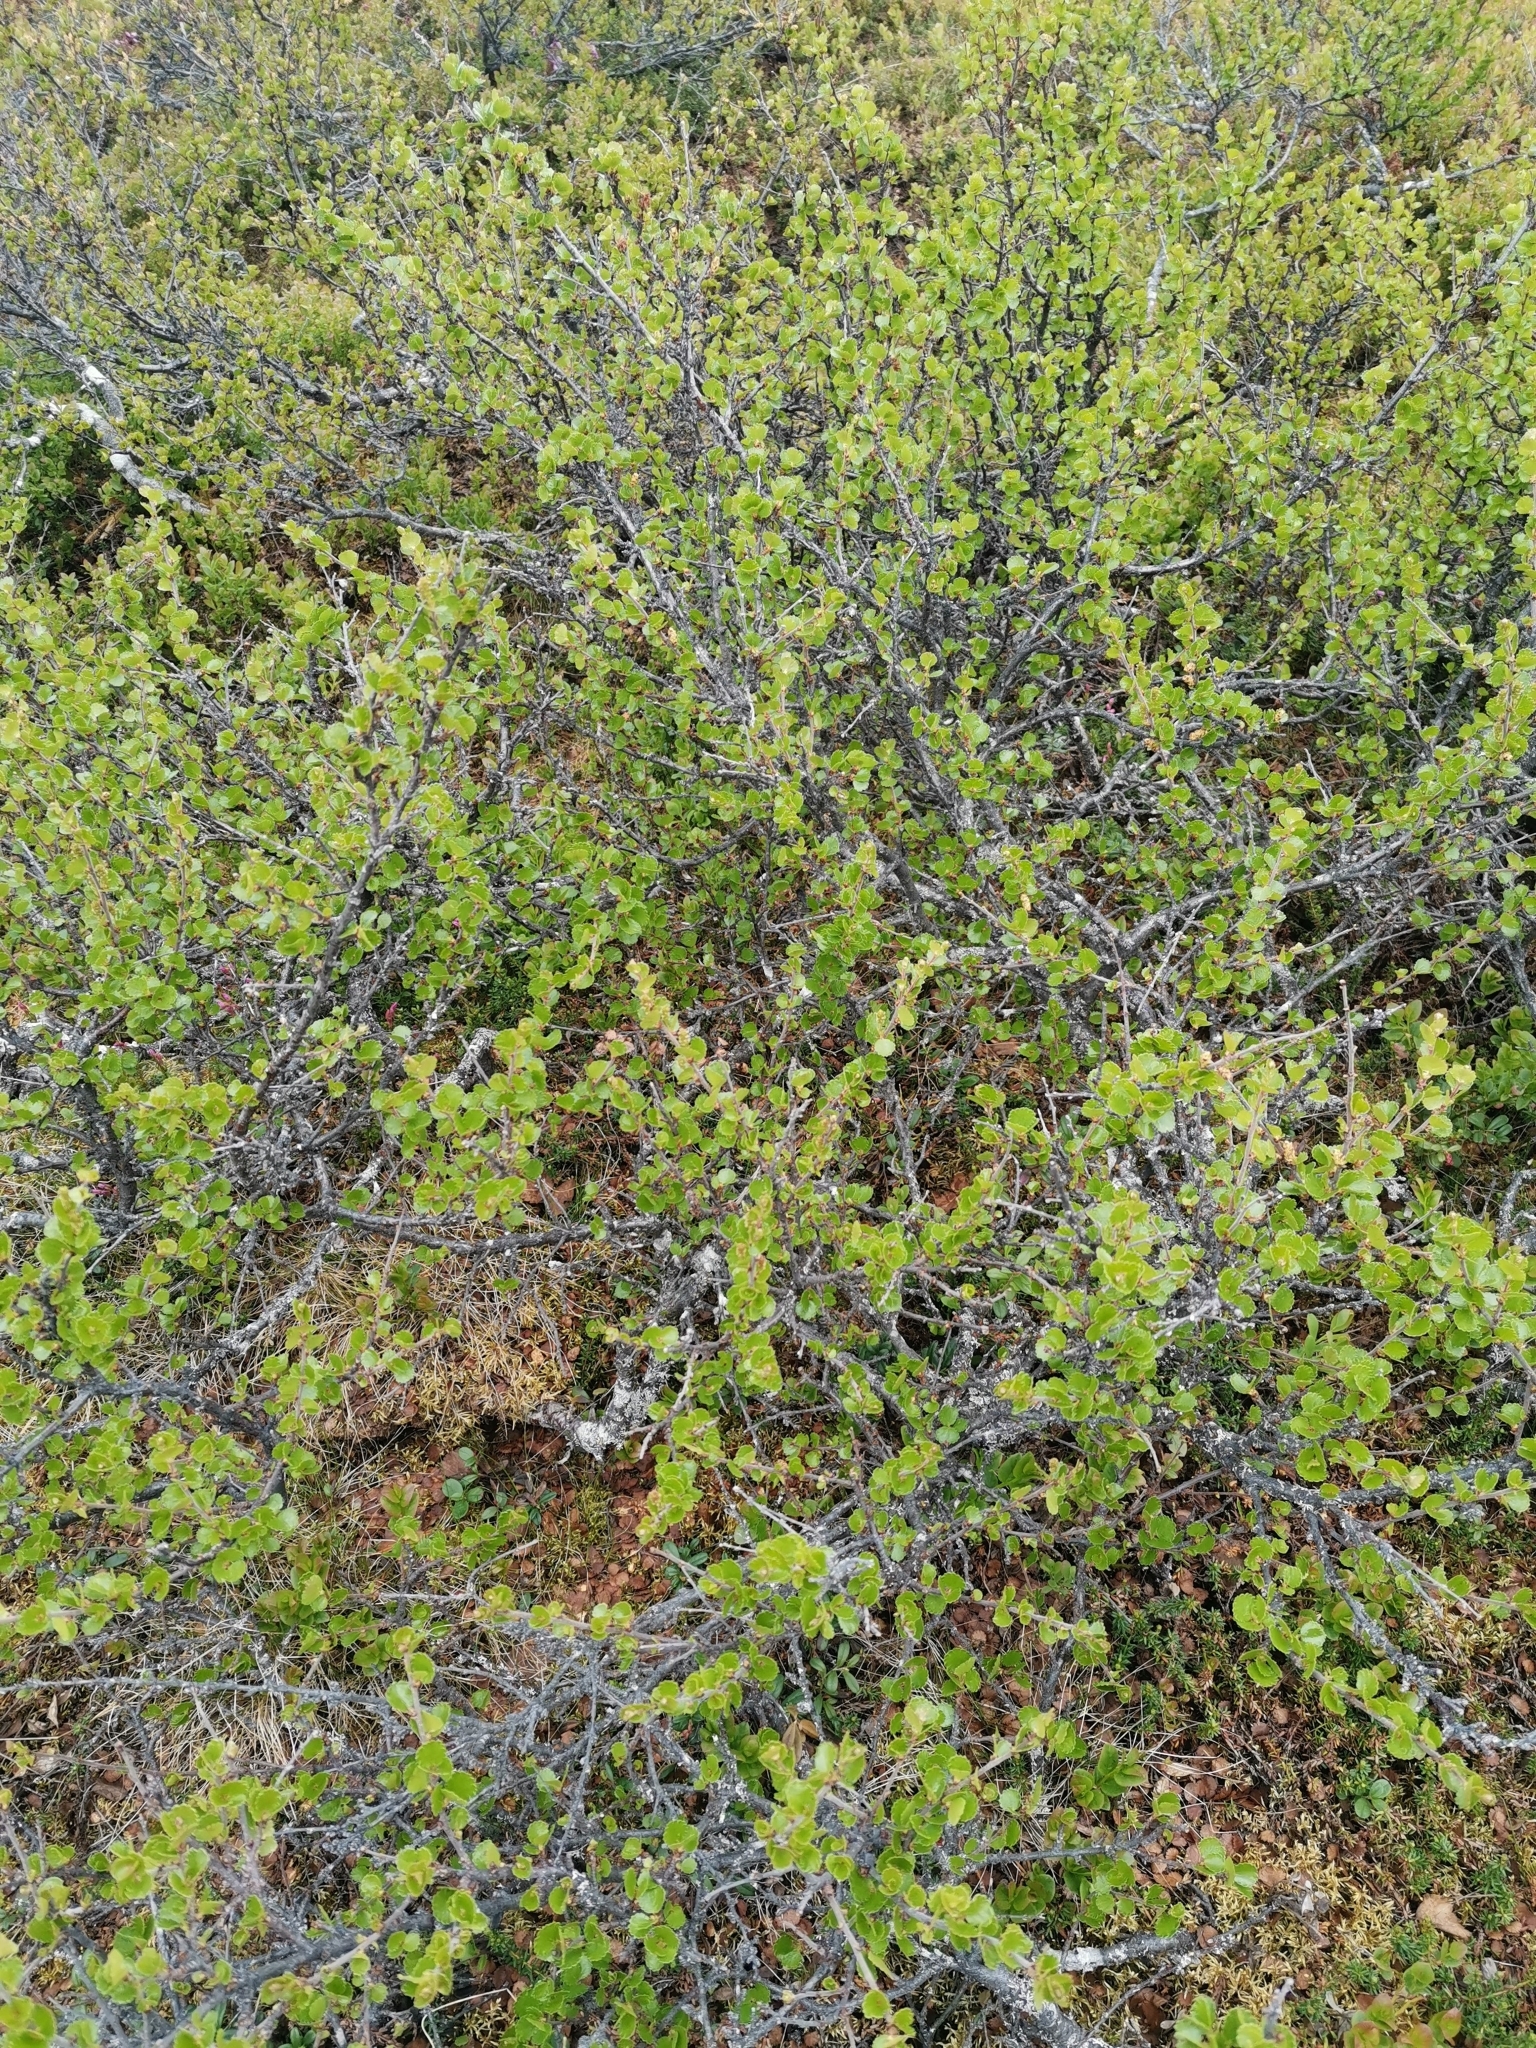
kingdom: Plantae
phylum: Tracheophyta
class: Magnoliopsida
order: Fagales
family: Betulaceae
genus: Betula
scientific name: Betula nana
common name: Arctic dwarf birch
